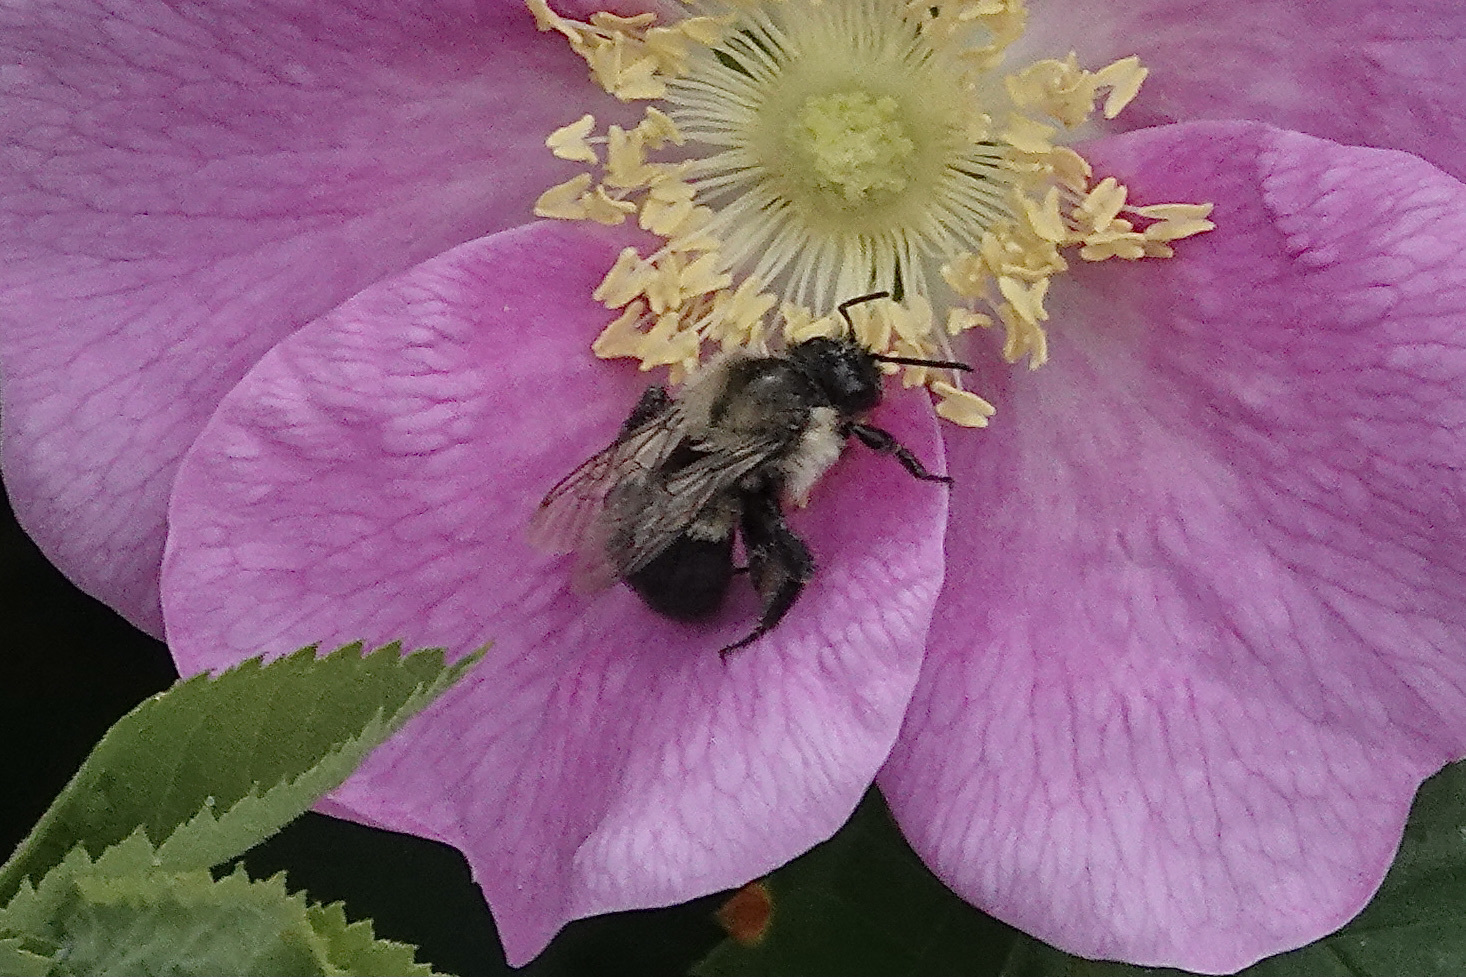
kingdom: Animalia
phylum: Arthropoda
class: Insecta
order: Hymenoptera
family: Apidae
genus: Bombus
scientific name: Bombus impatiens
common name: Common eastern bumble bee
